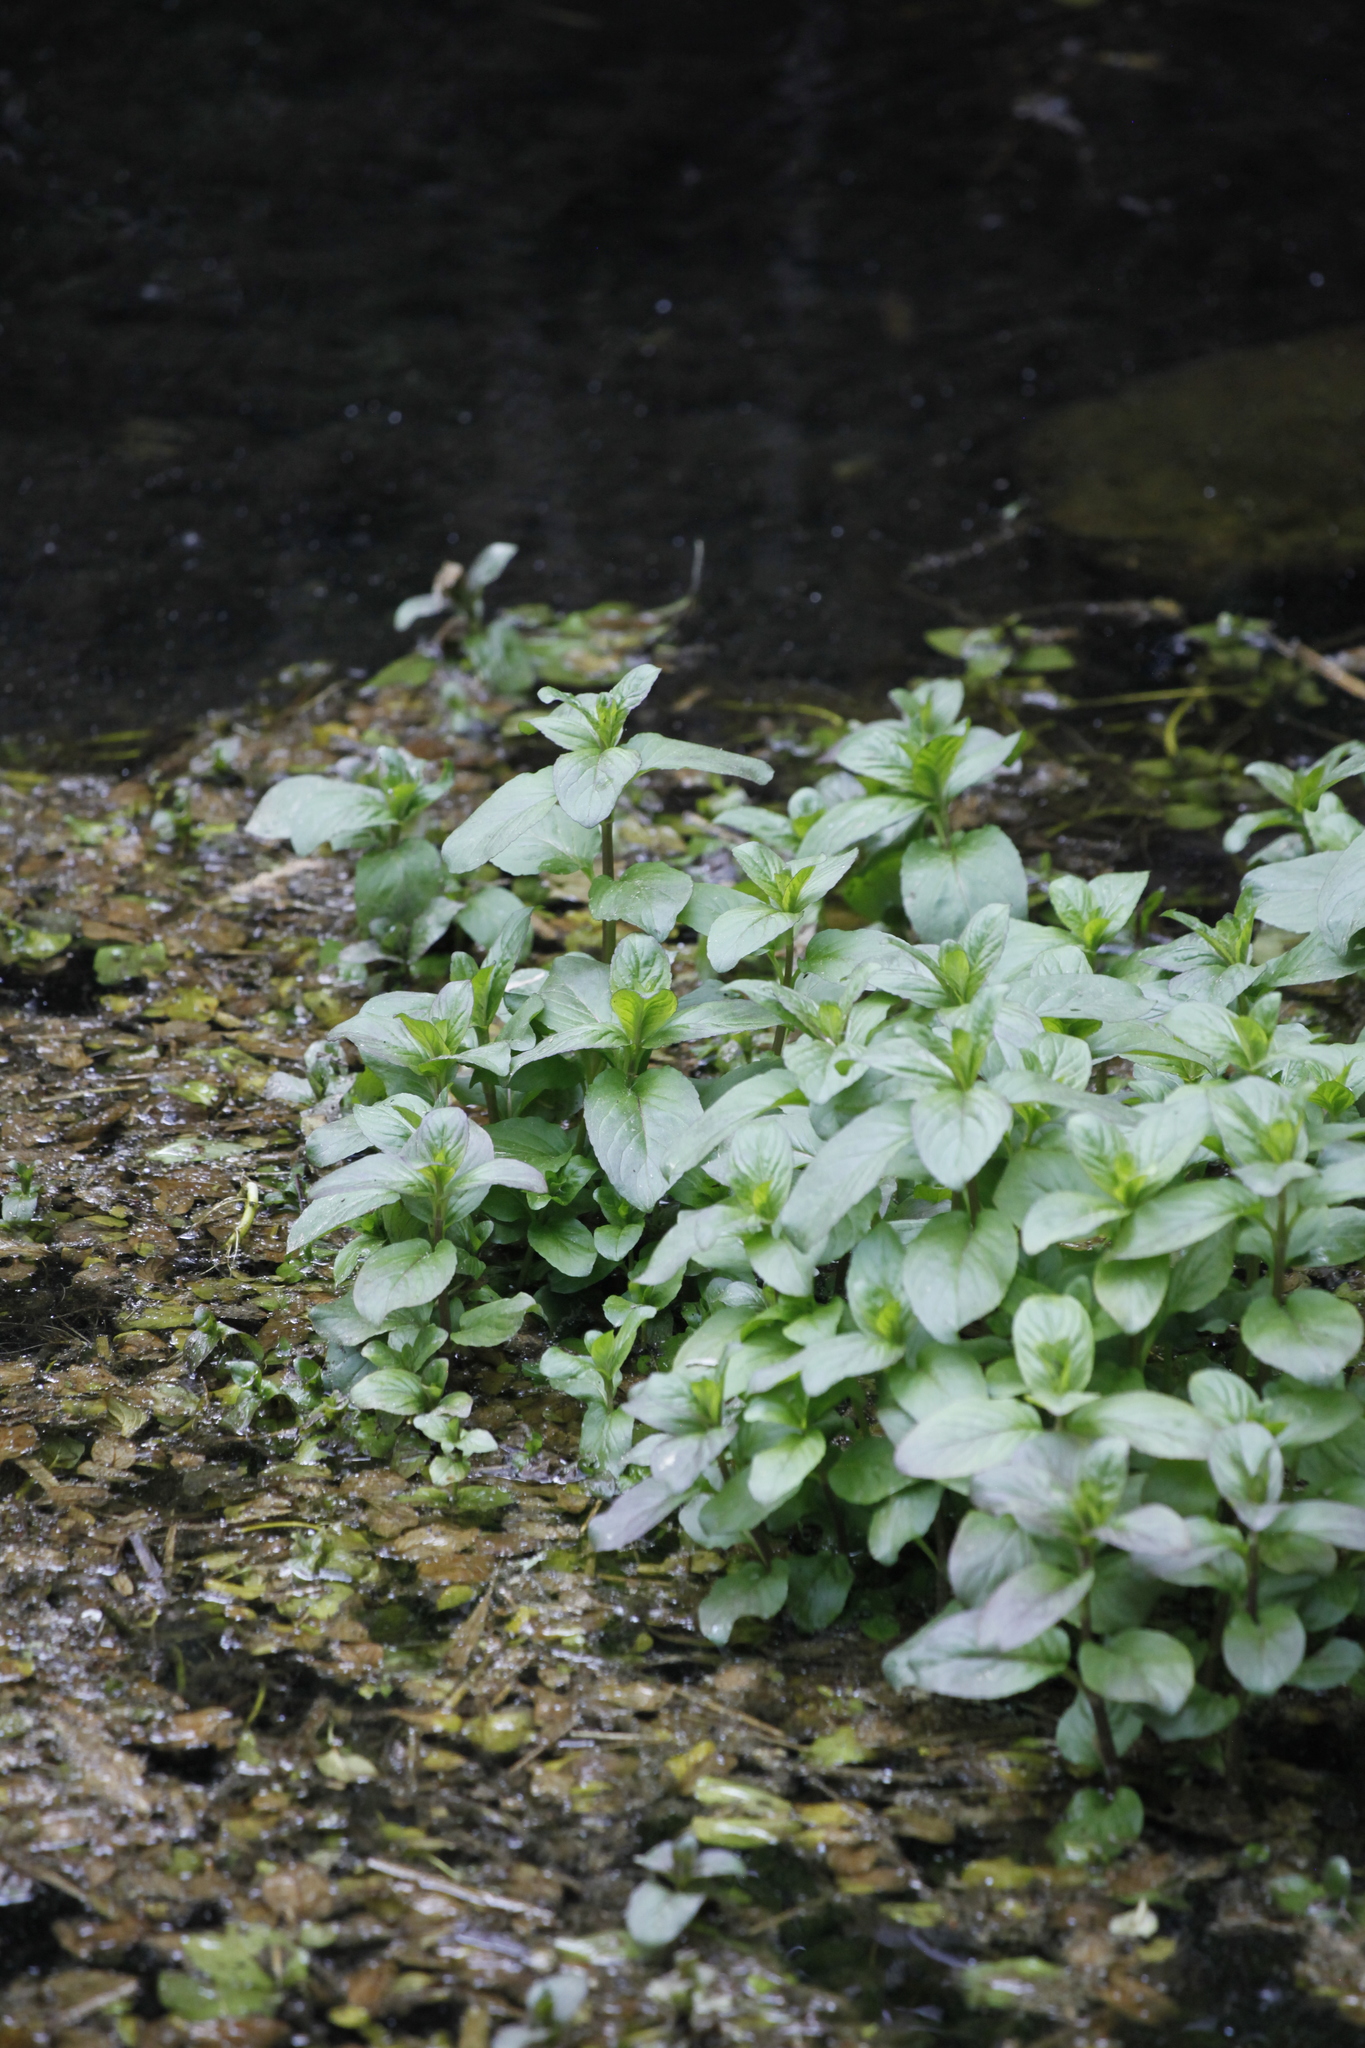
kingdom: Plantae
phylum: Tracheophyta
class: Magnoliopsida
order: Lamiales
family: Lamiaceae
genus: Mentha
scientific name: Mentha aquatica
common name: Water mint
